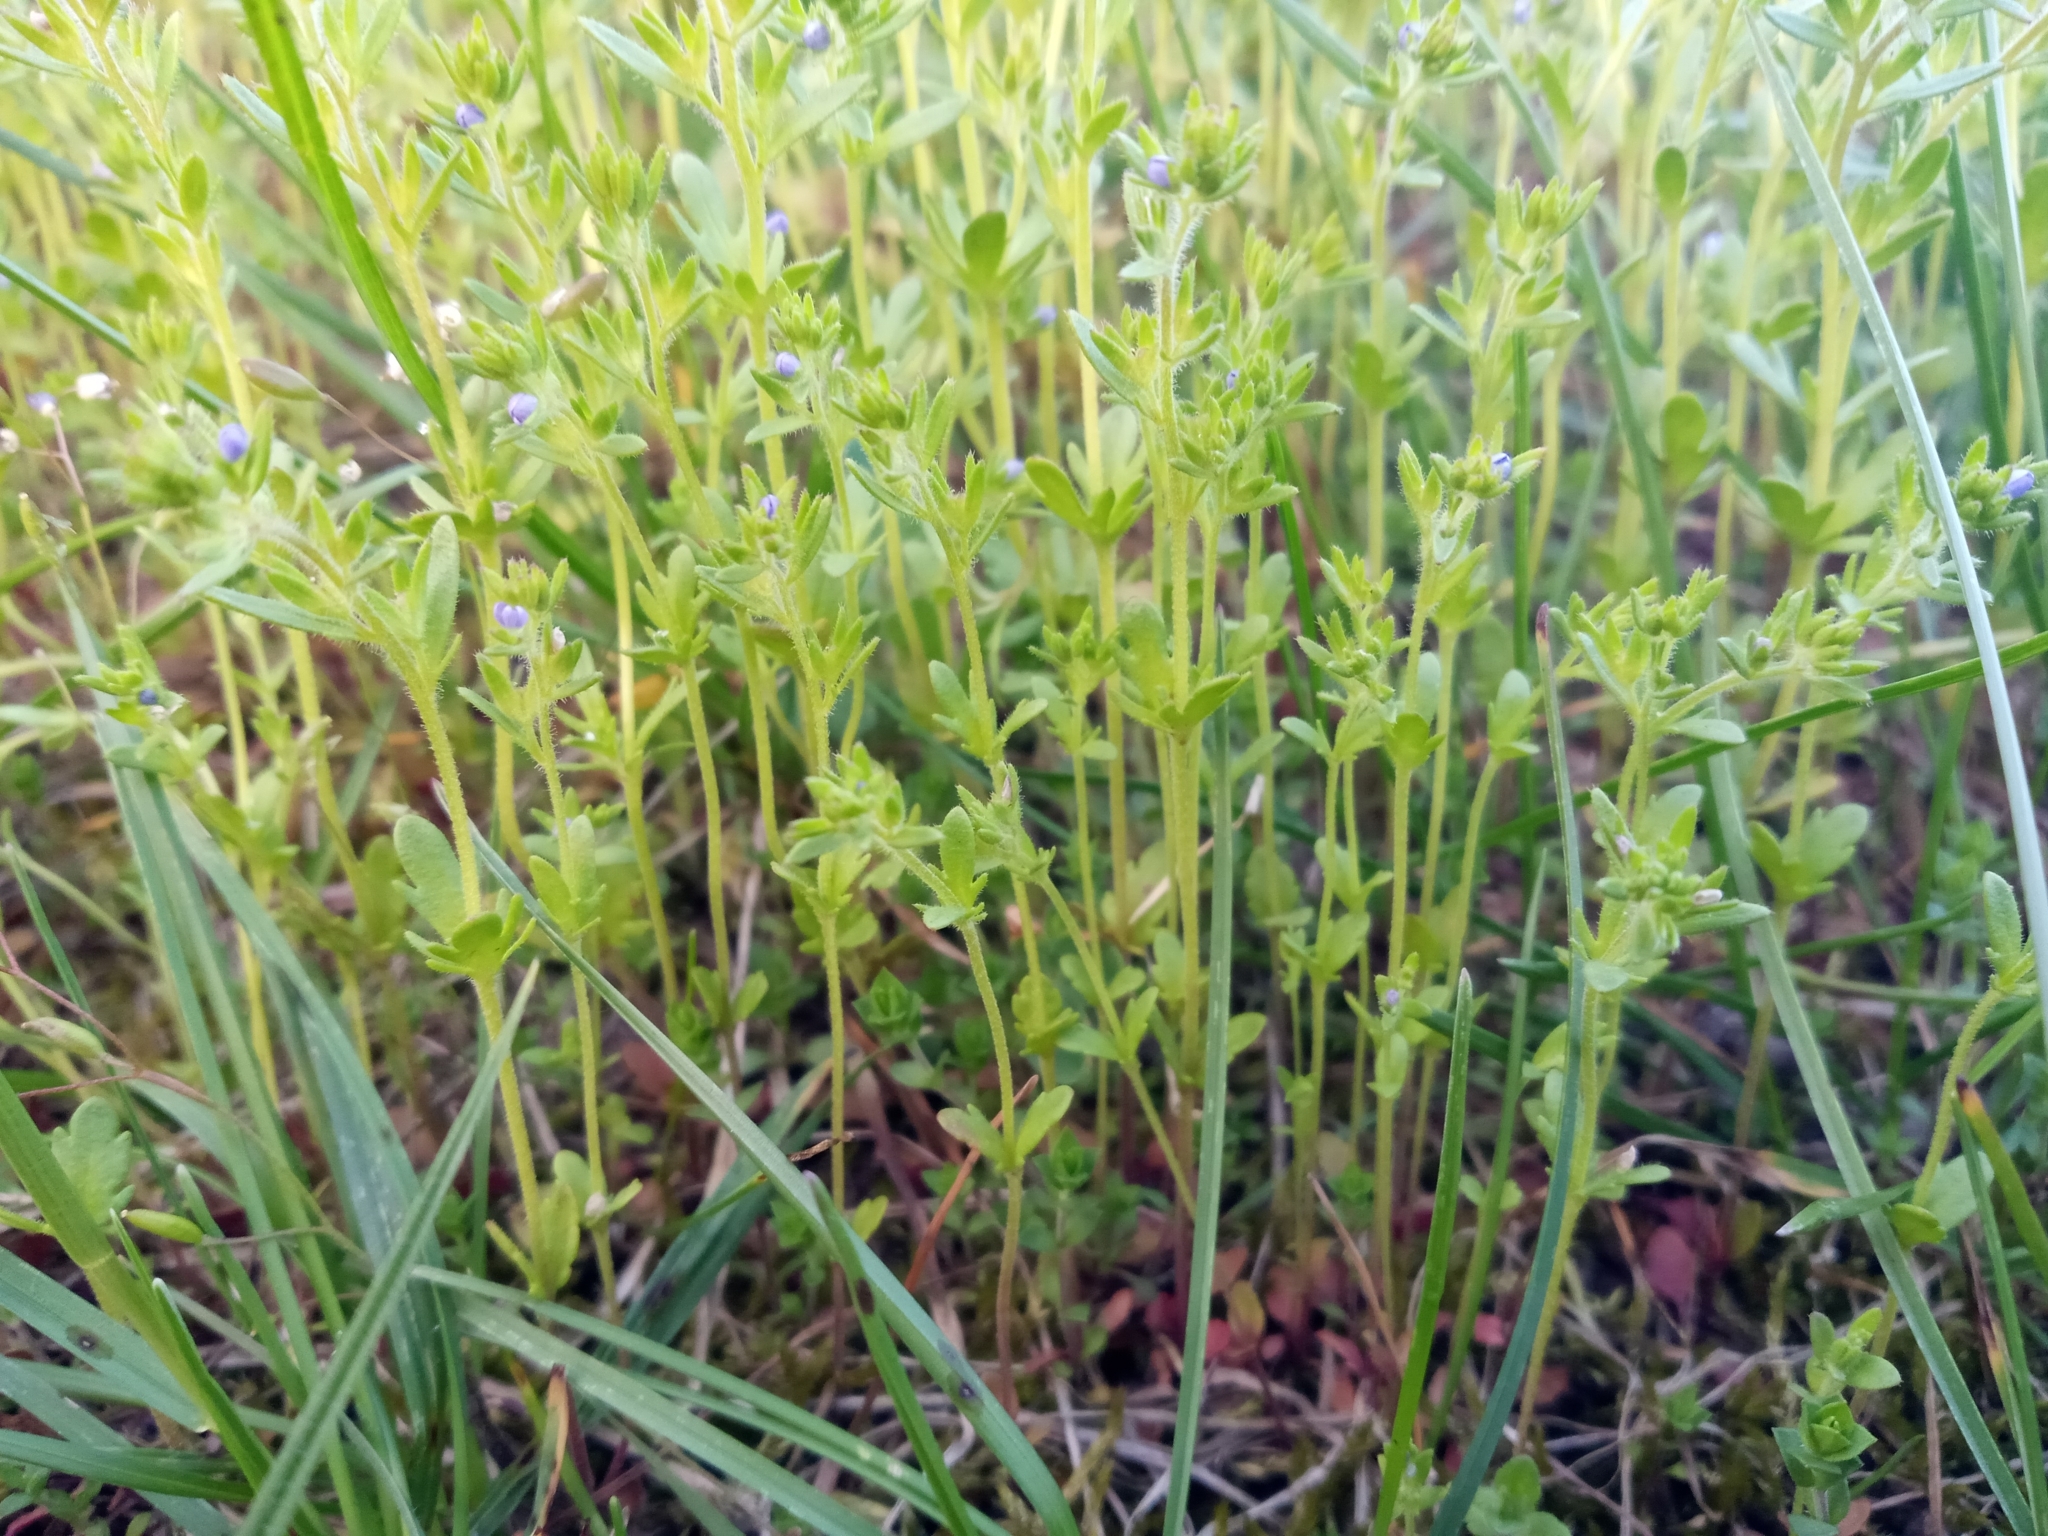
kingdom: Plantae
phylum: Tracheophyta
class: Magnoliopsida
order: Lamiales
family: Plantaginaceae
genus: Veronica
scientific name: Veronica verna
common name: Spring speedwell
